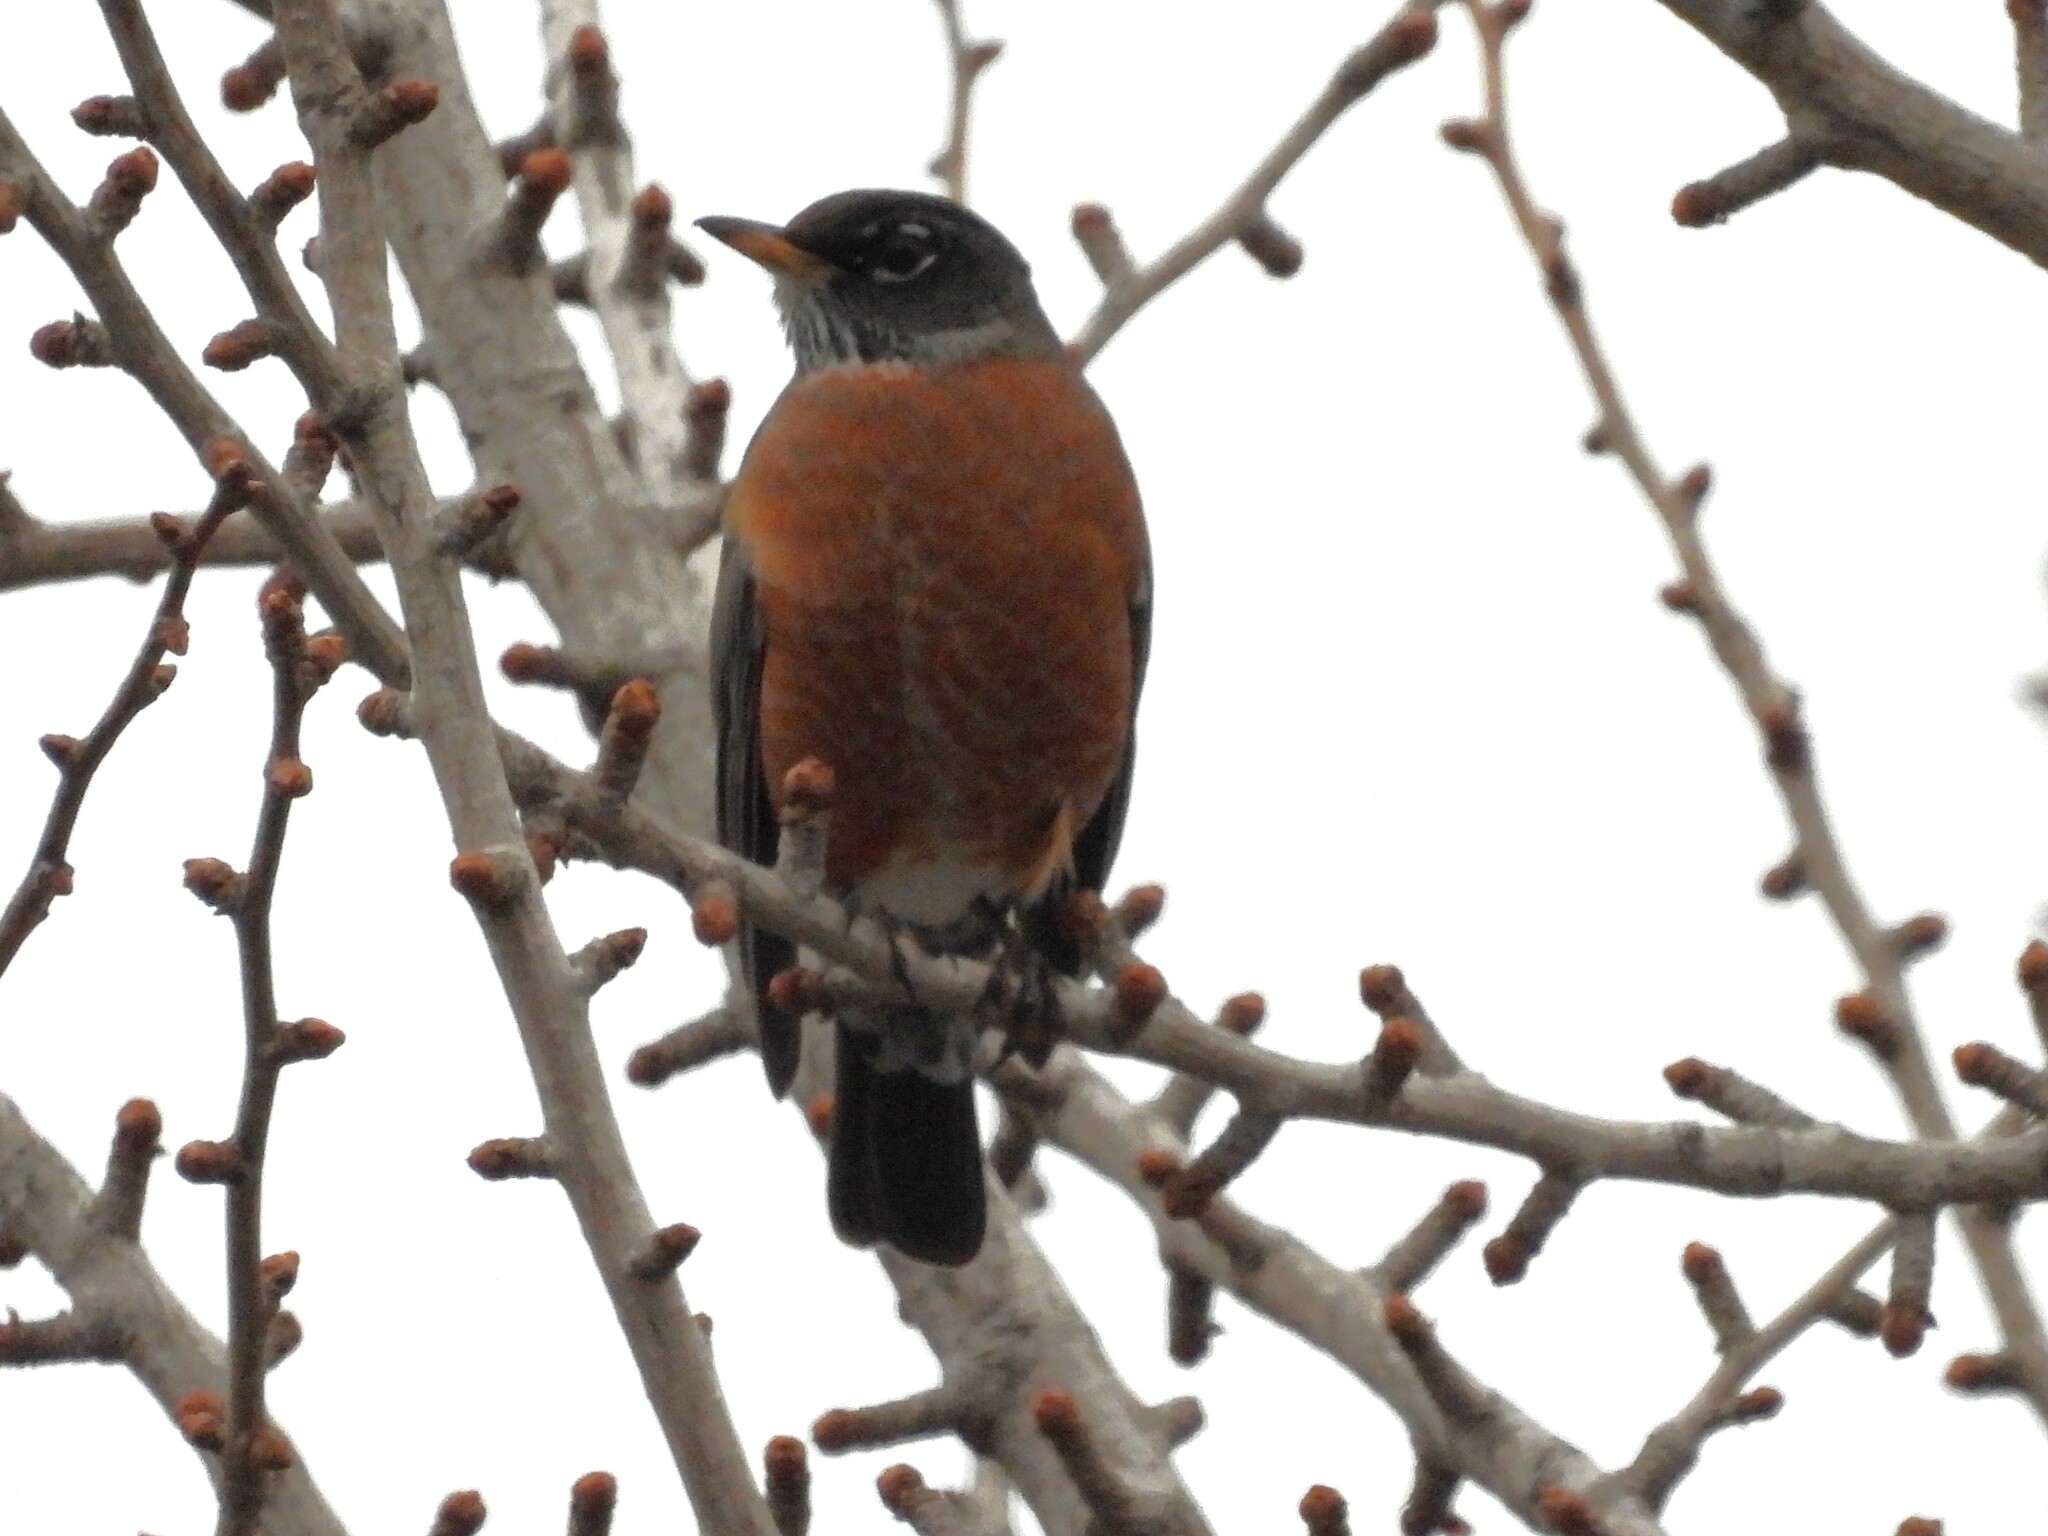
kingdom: Animalia
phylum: Chordata
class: Aves
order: Passeriformes
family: Turdidae
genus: Turdus
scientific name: Turdus migratorius
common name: American robin
